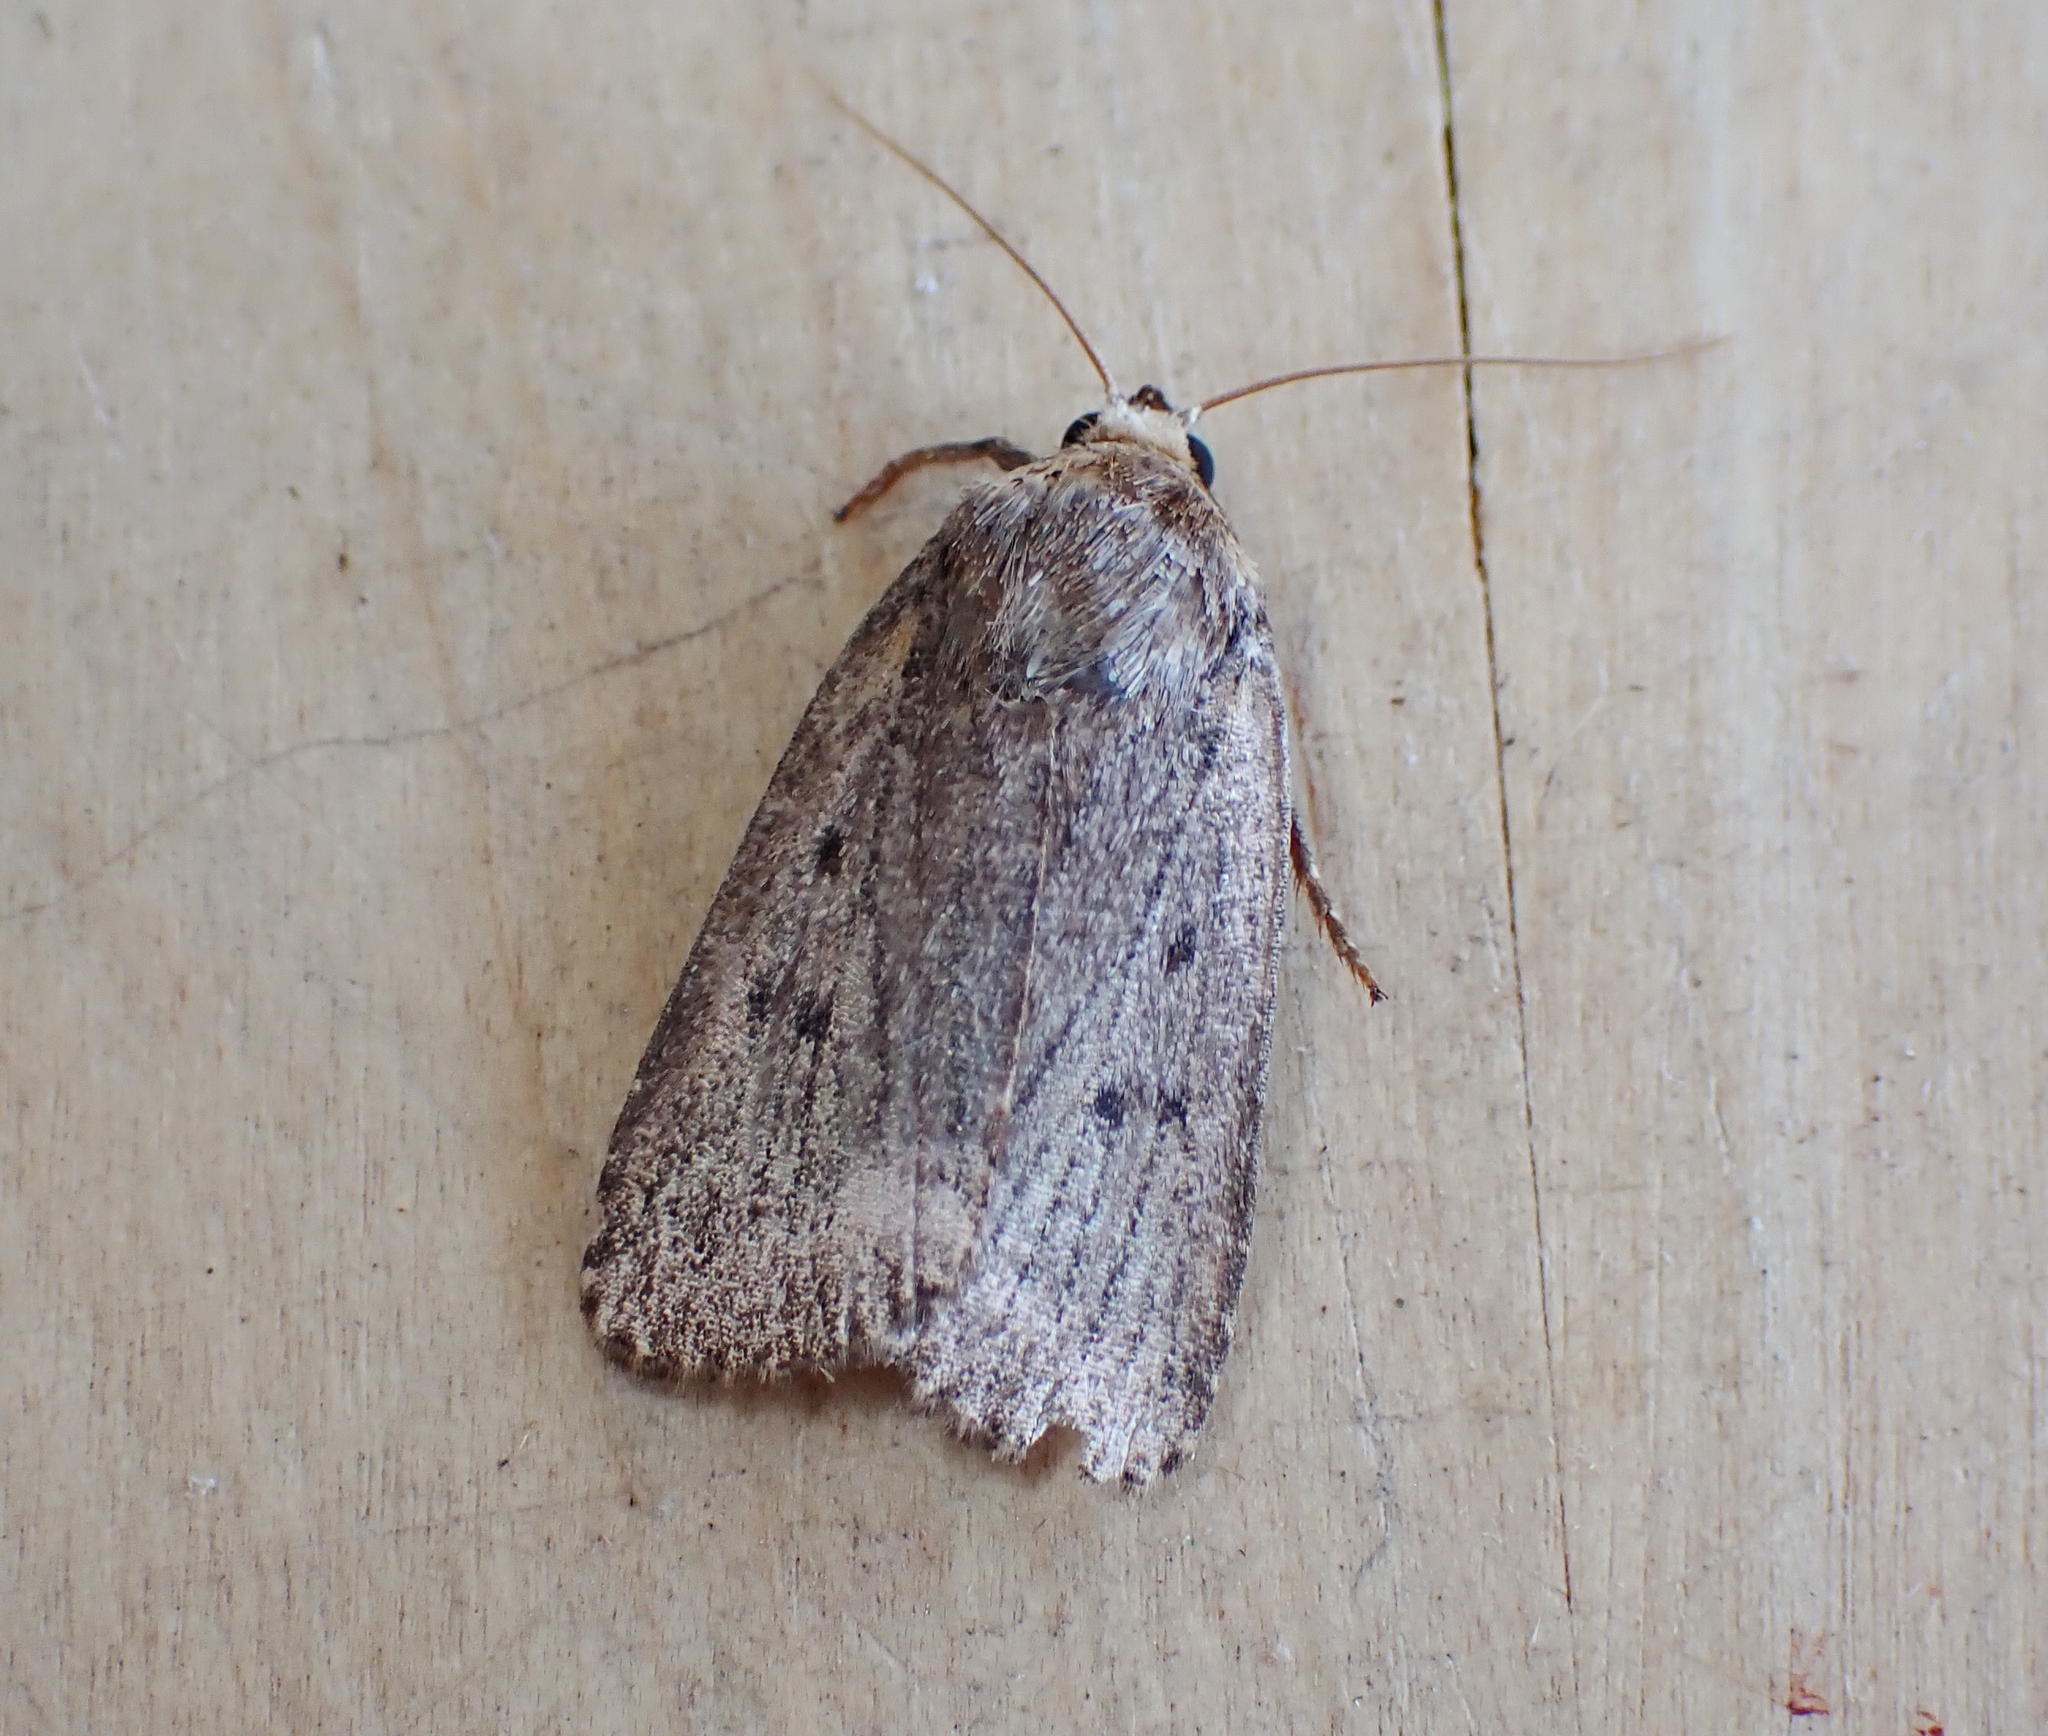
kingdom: Animalia
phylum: Arthropoda
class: Insecta
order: Lepidoptera
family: Noctuidae
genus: Amphipyra
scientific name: Amphipyra tragopoginis
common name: Mouse moth
